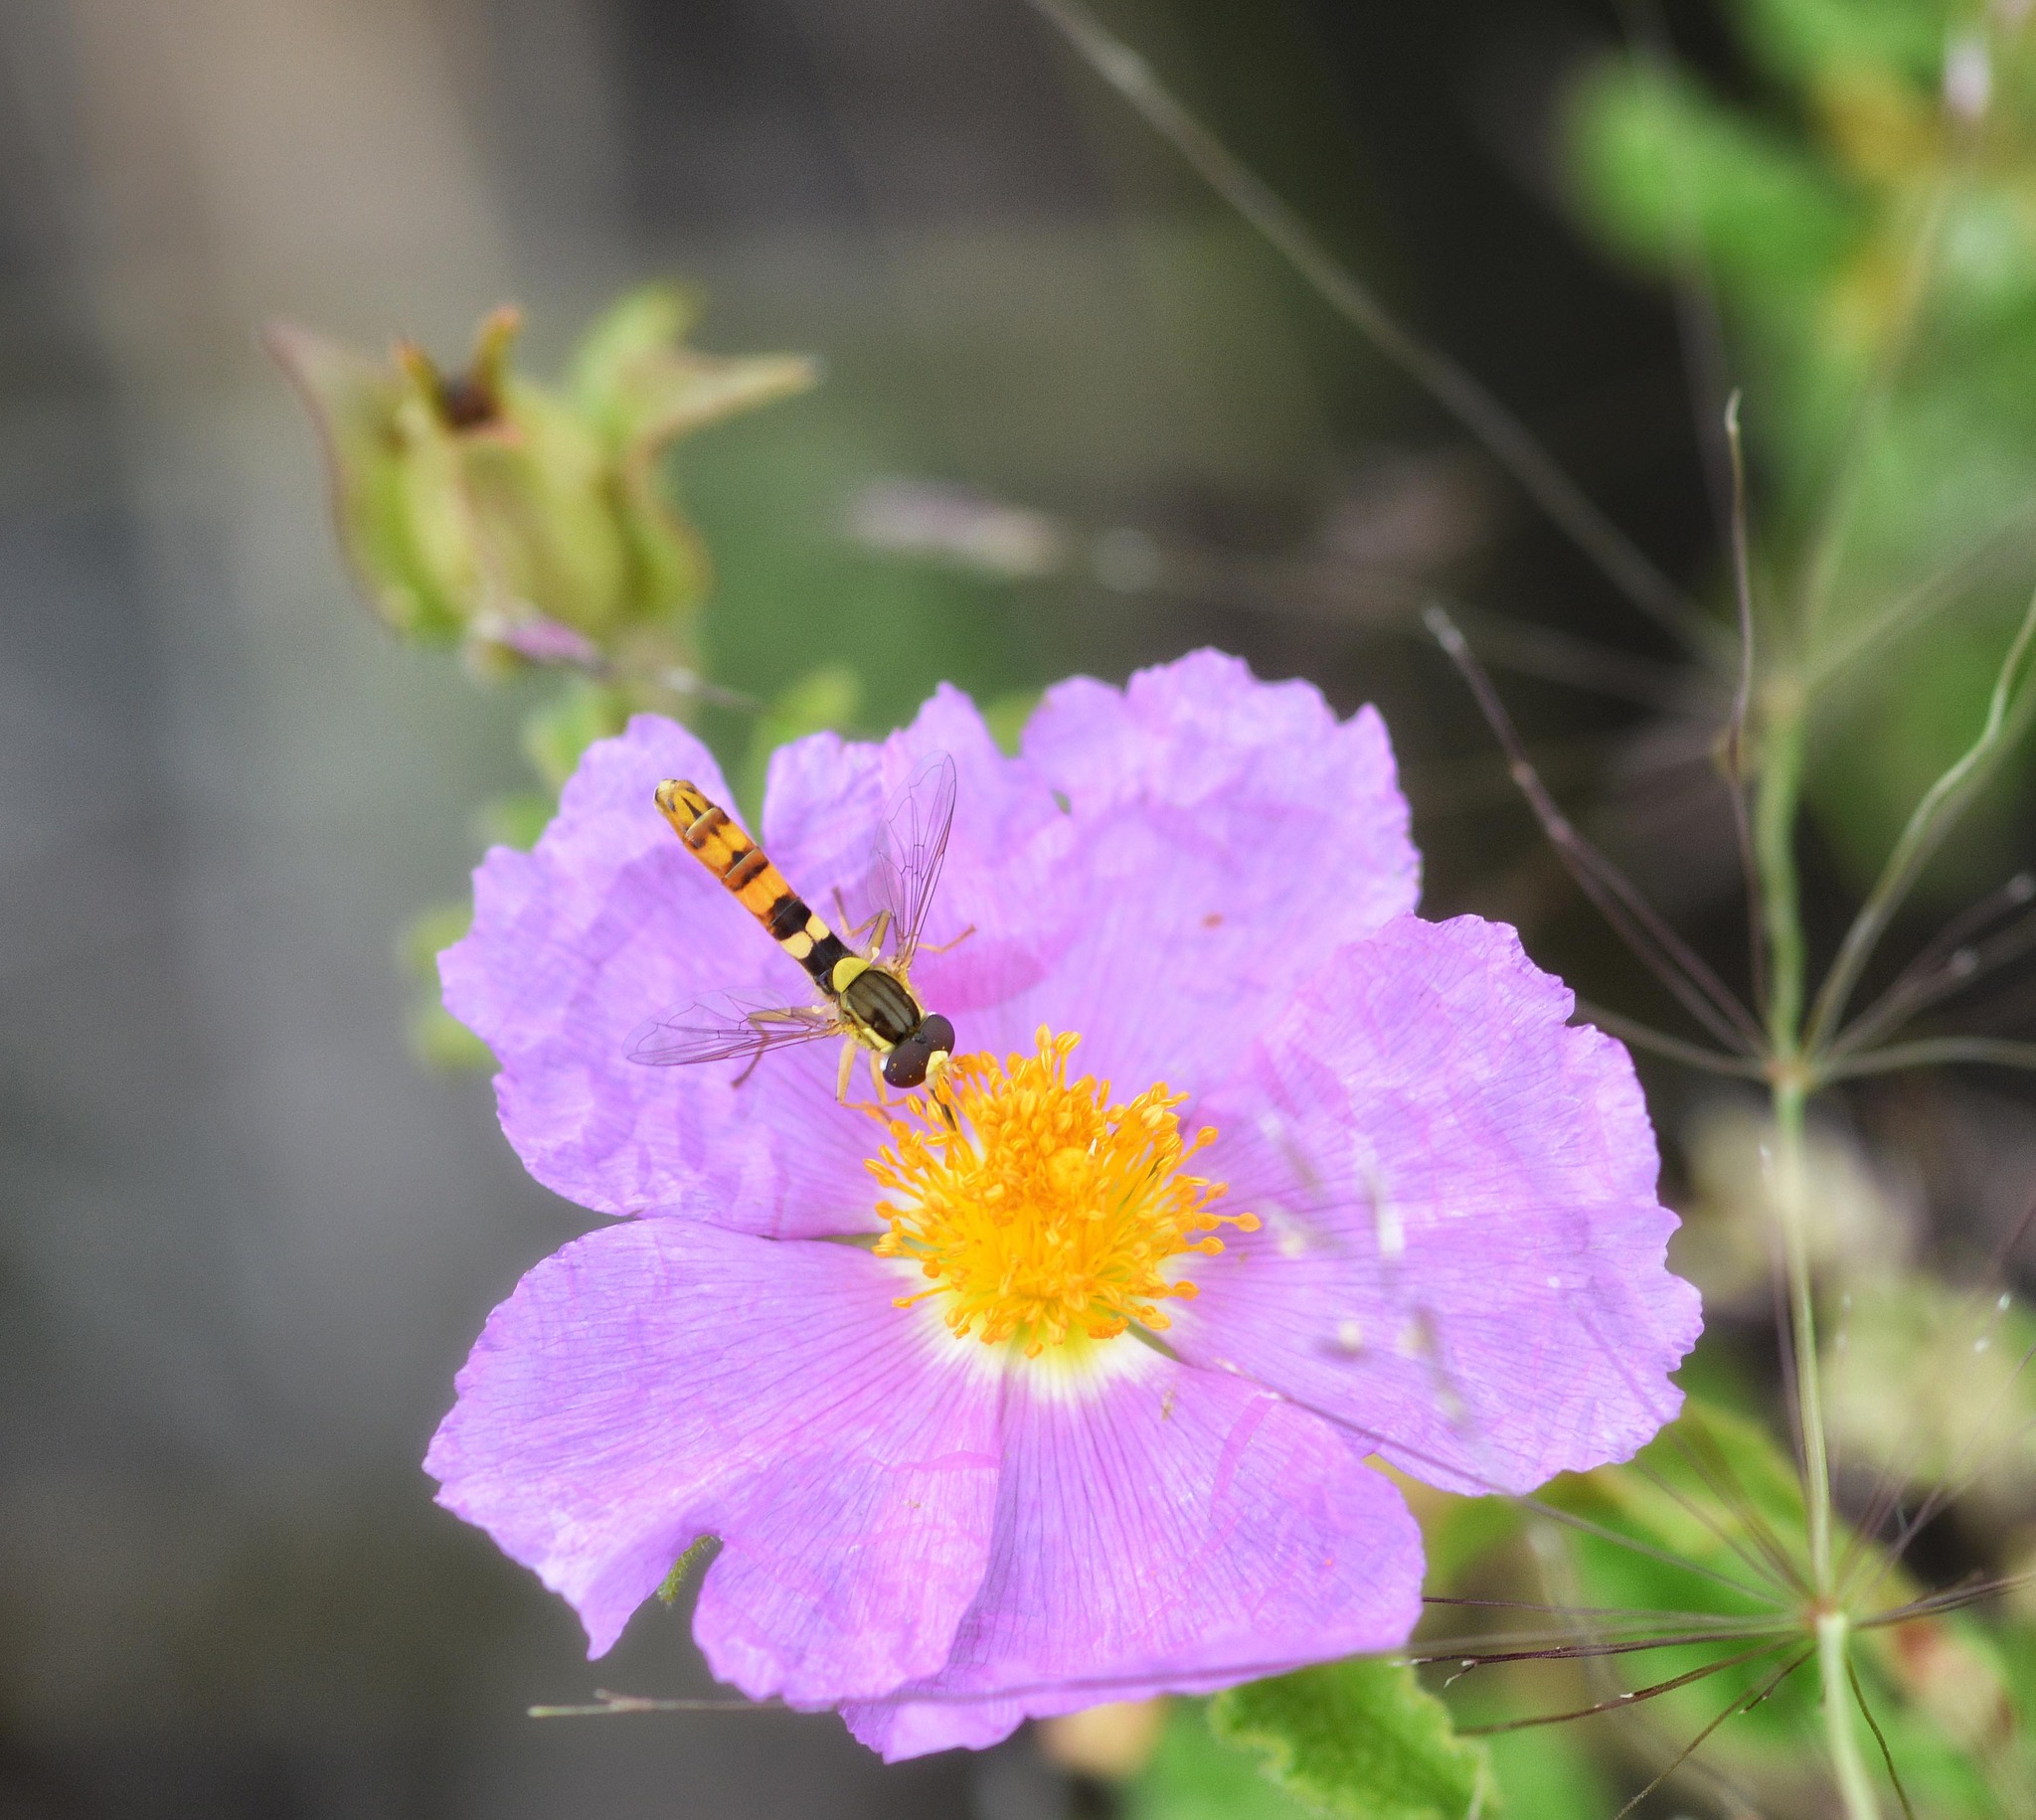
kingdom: Animalia
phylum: Arthropoda
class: Insecta
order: Diptera
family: Syrphidae
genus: Sphaerophoria
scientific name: Sphaerophoria scripta
